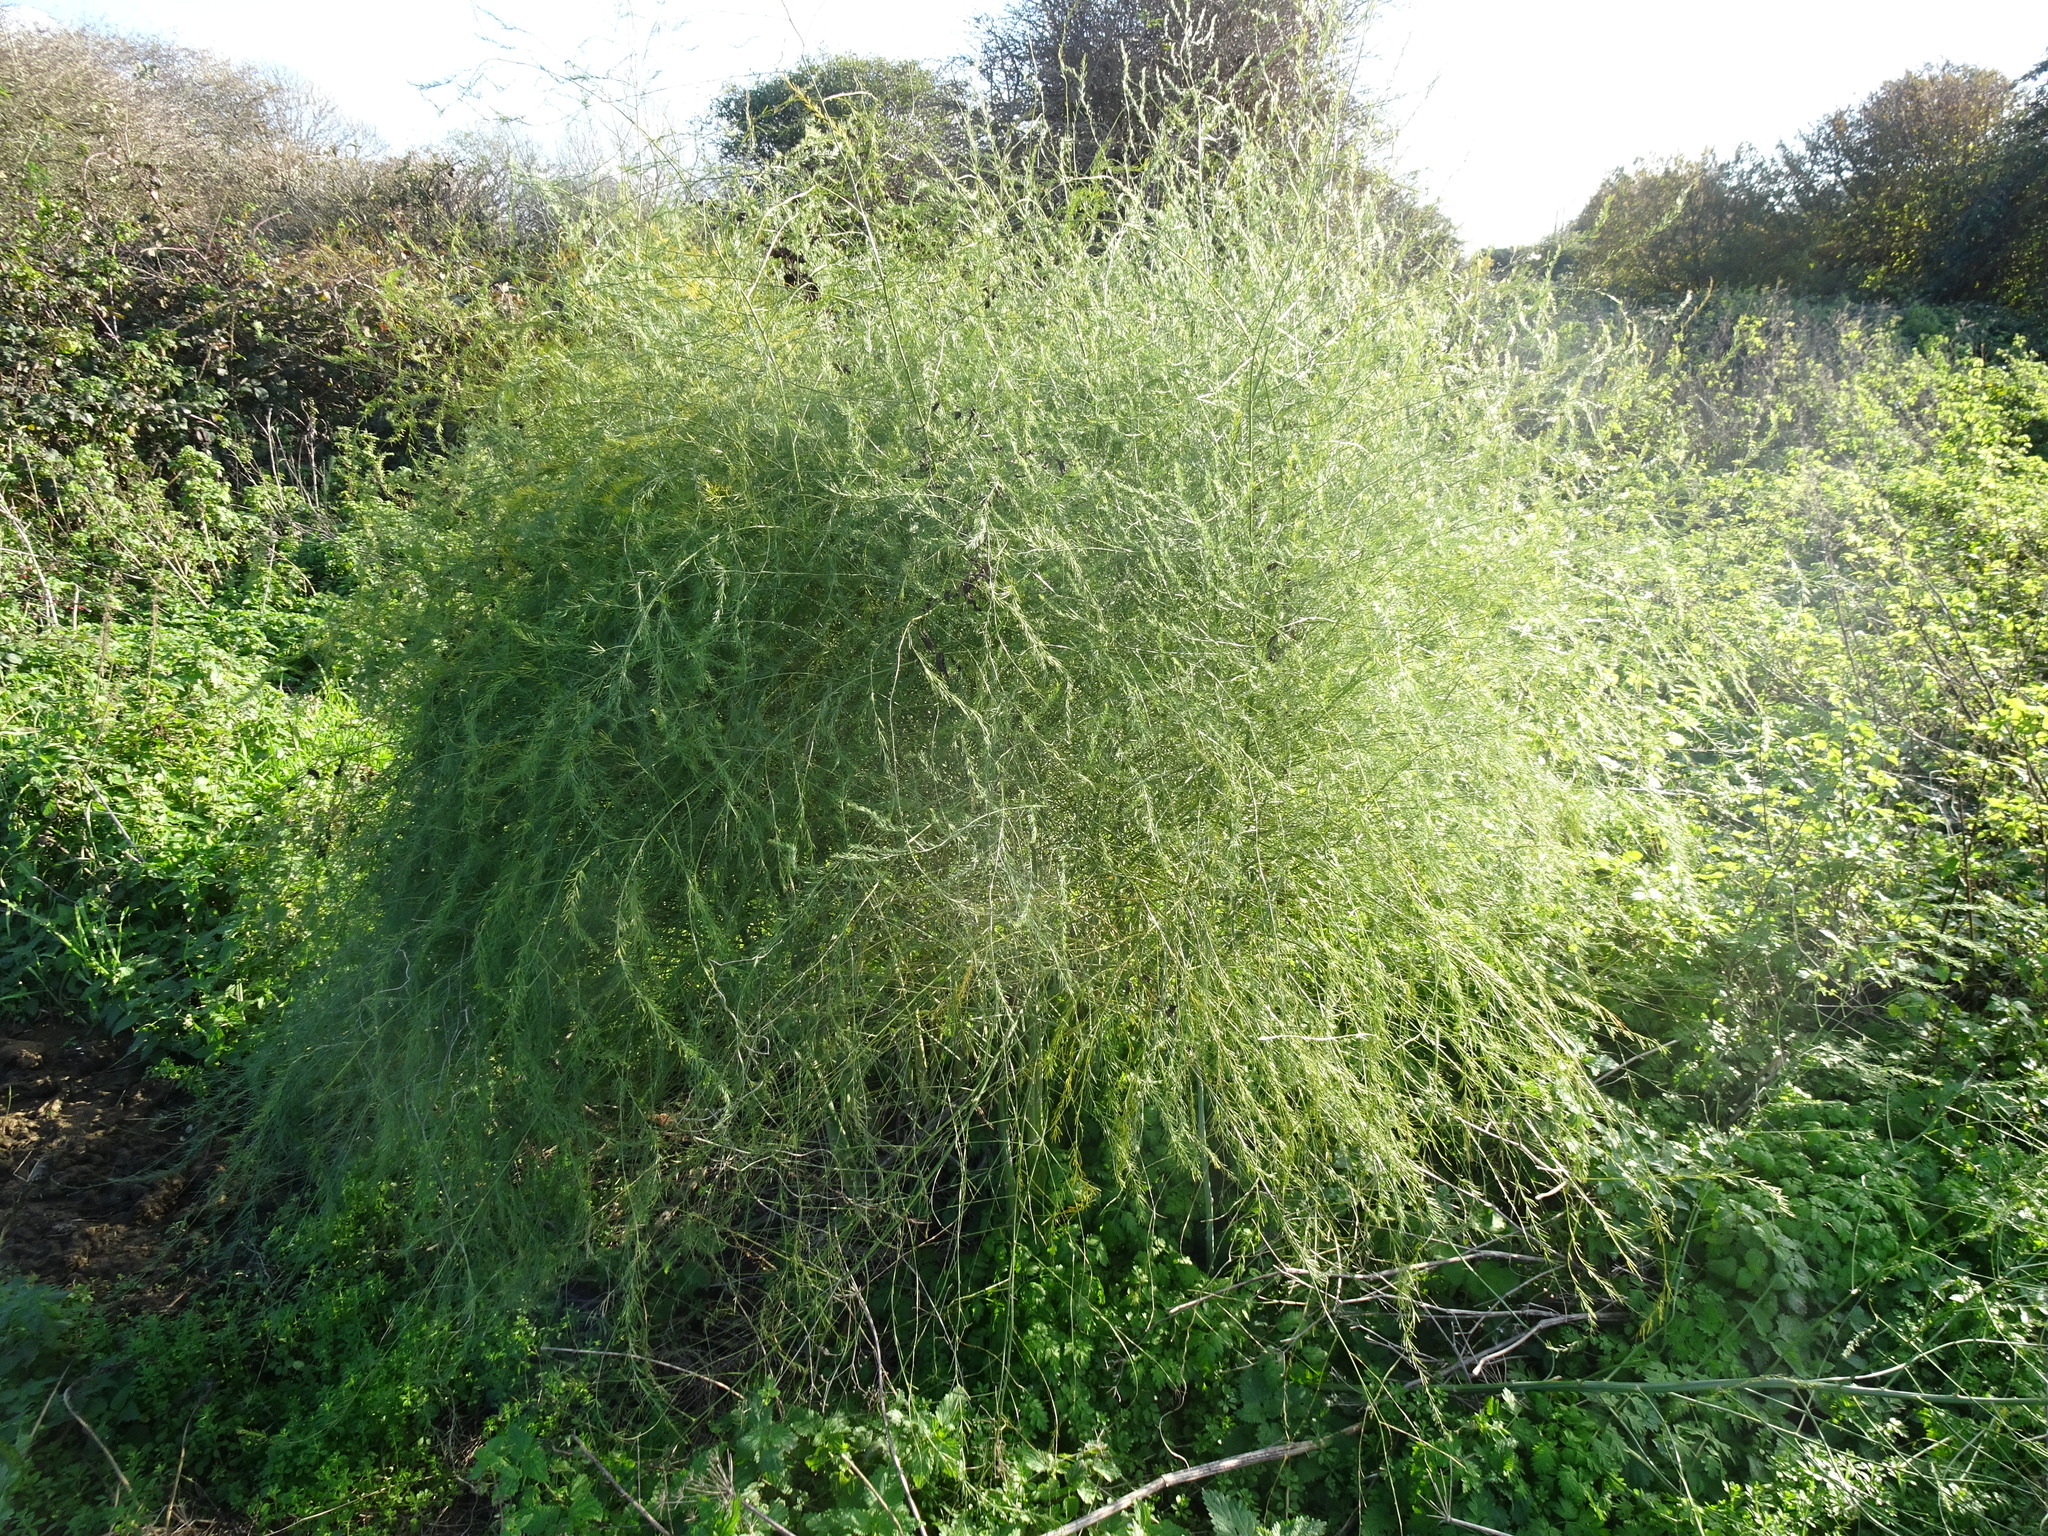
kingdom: Plantae
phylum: Tracheophyta
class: Liliopsida
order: Asparagales
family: Asparagaceae
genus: Asparagus
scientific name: Asparagus officinalis
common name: Garden asparagus
